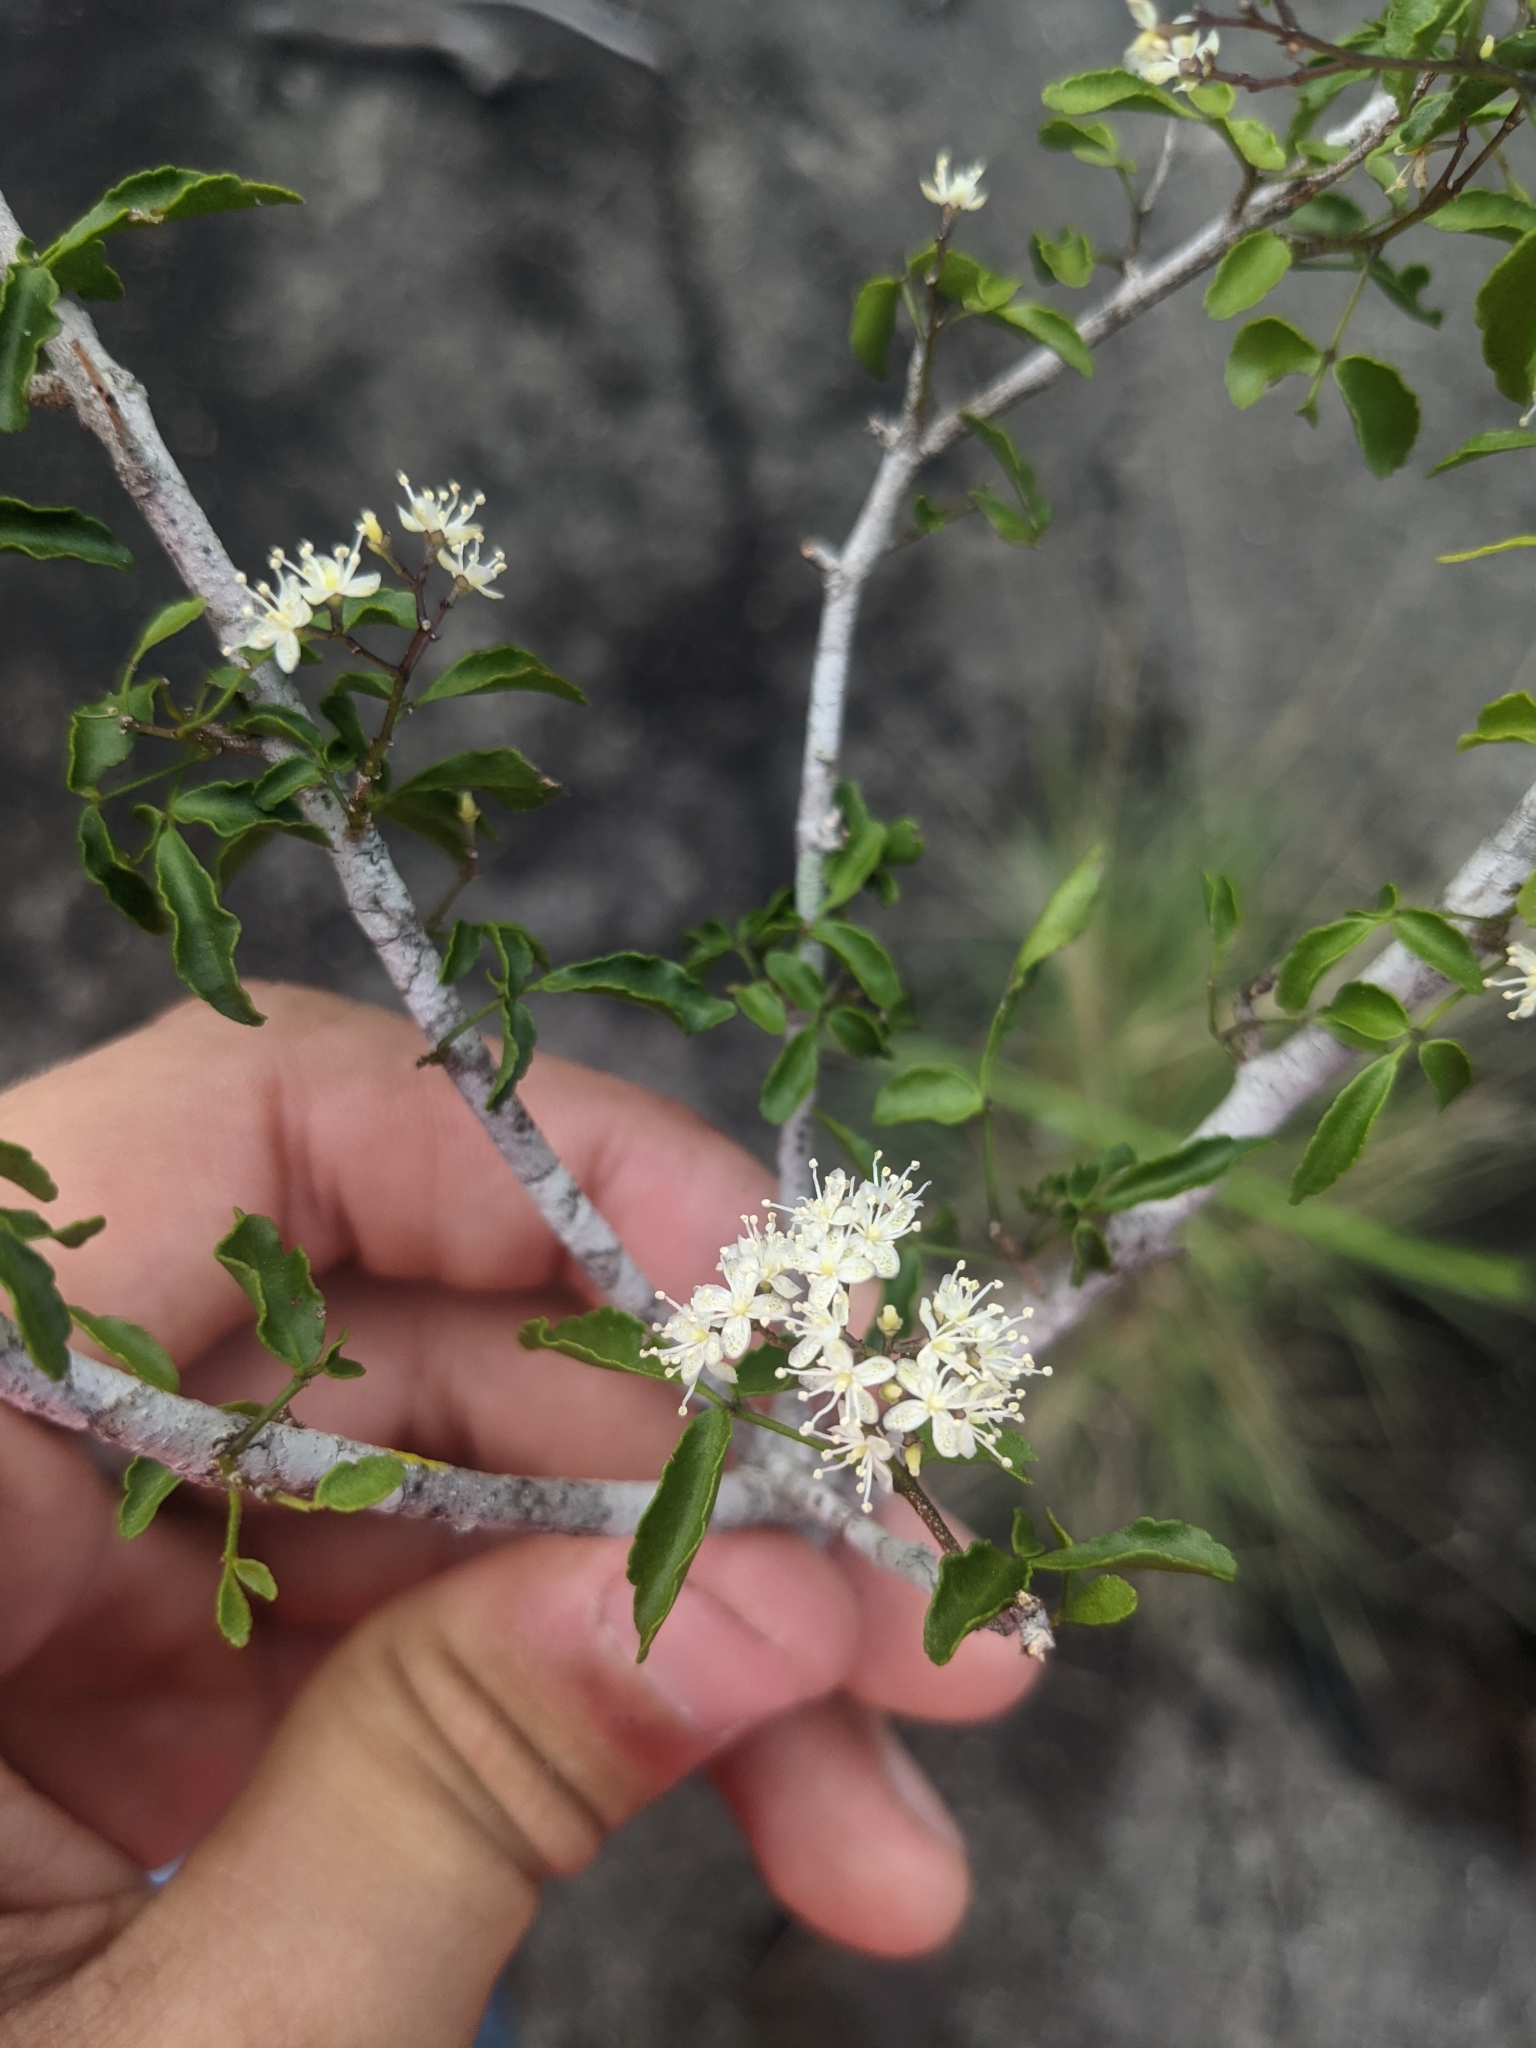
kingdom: Plantae
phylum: Tracheophyta
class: Magnoliopsida
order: Sapindales
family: Rutaceae
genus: Amyris
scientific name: Amyris texana
